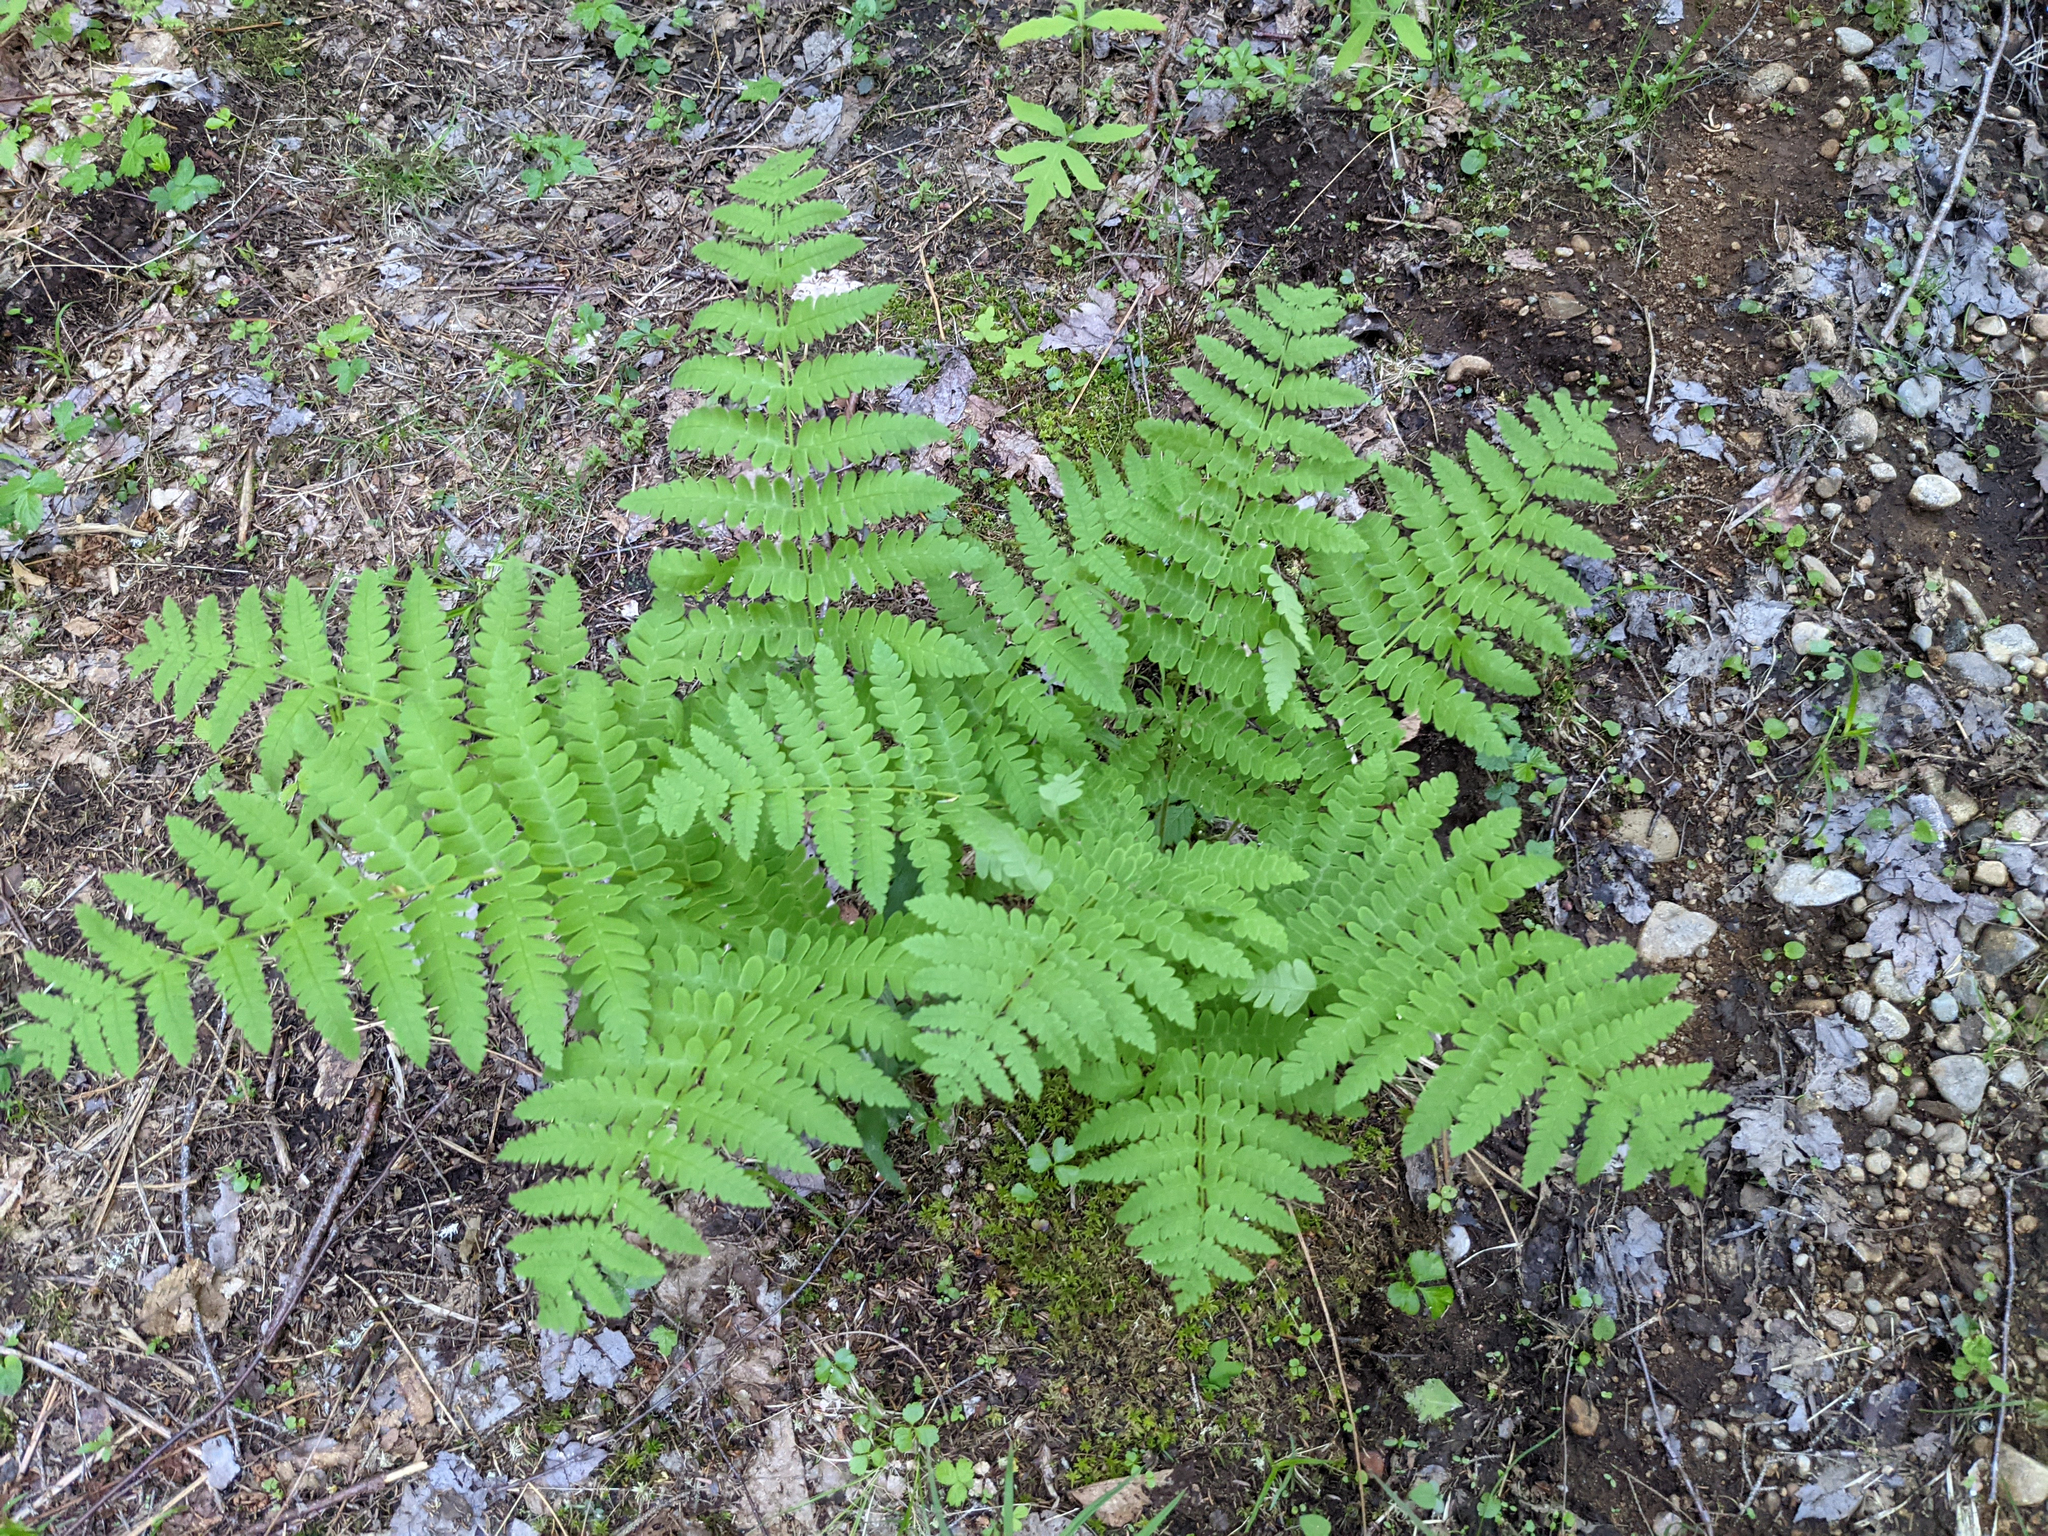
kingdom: Plantae
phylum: Tracheophyta
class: Polypodiopsida
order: Osmundales
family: Osmundaceae
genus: Claytosmunda
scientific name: Claytosmunda claytoniana
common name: Clayton's fern
